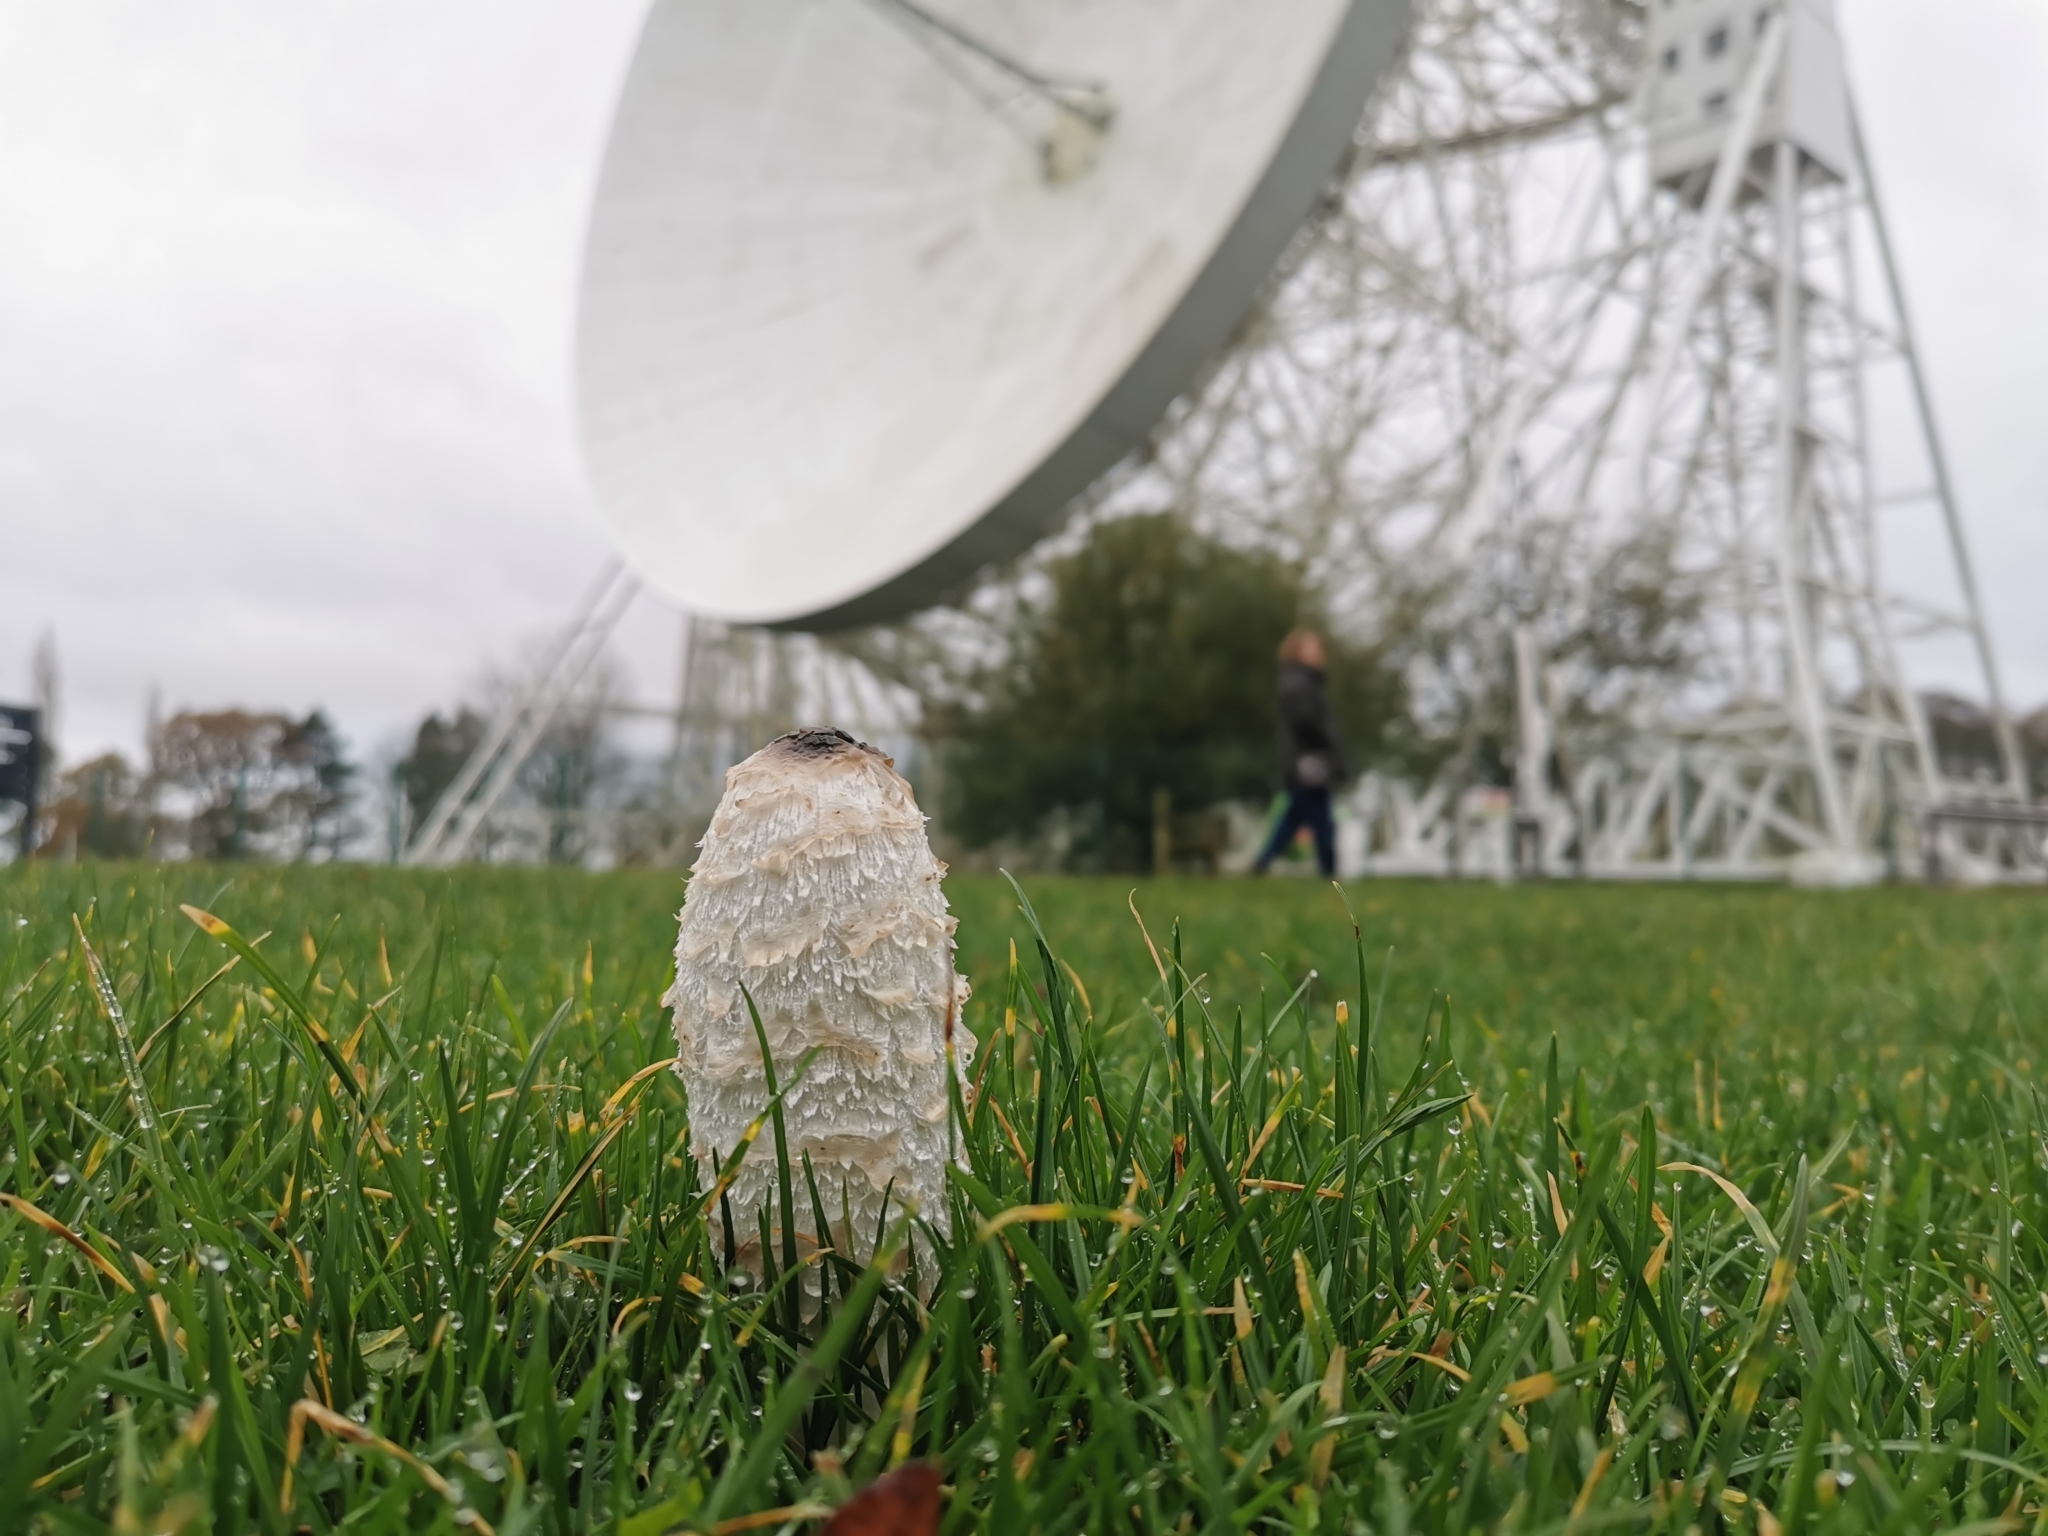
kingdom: Fungi
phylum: Basidiomycota
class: Agaricomycetes
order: Agaricales
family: Agaricaceae
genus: Coprinus
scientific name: Coprinus comatus
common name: Lawyer's wig
